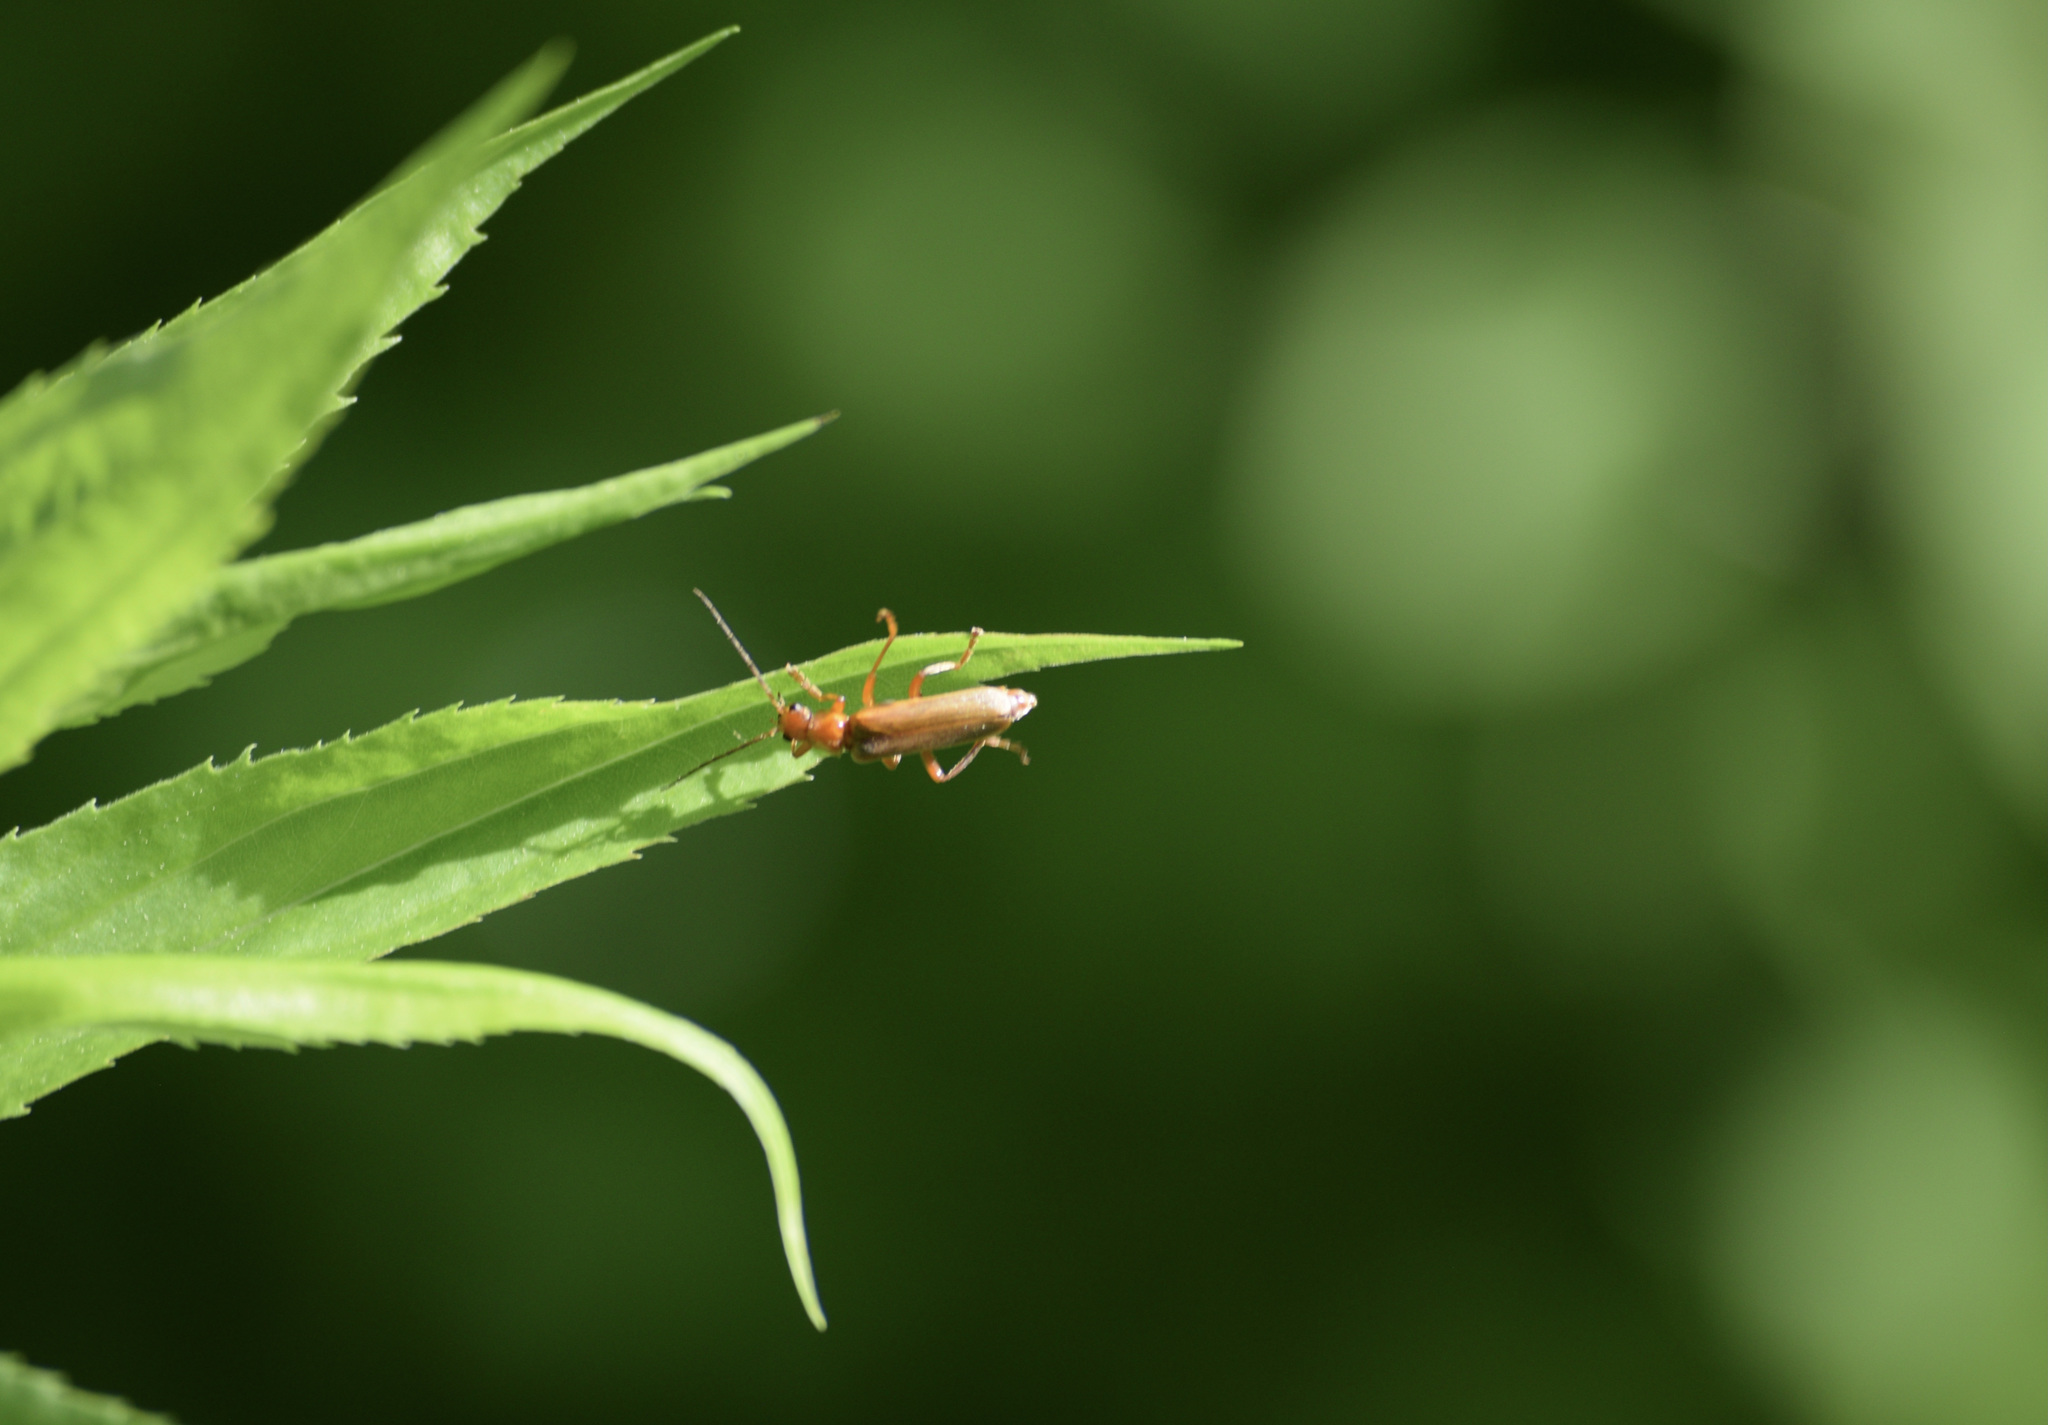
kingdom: Animalia
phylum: Arthropoda
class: Insecta
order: Coleoptera
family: Cantharidae
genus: Cantharis
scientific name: Cantharis rufa
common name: Red-spotted soldier beetle
